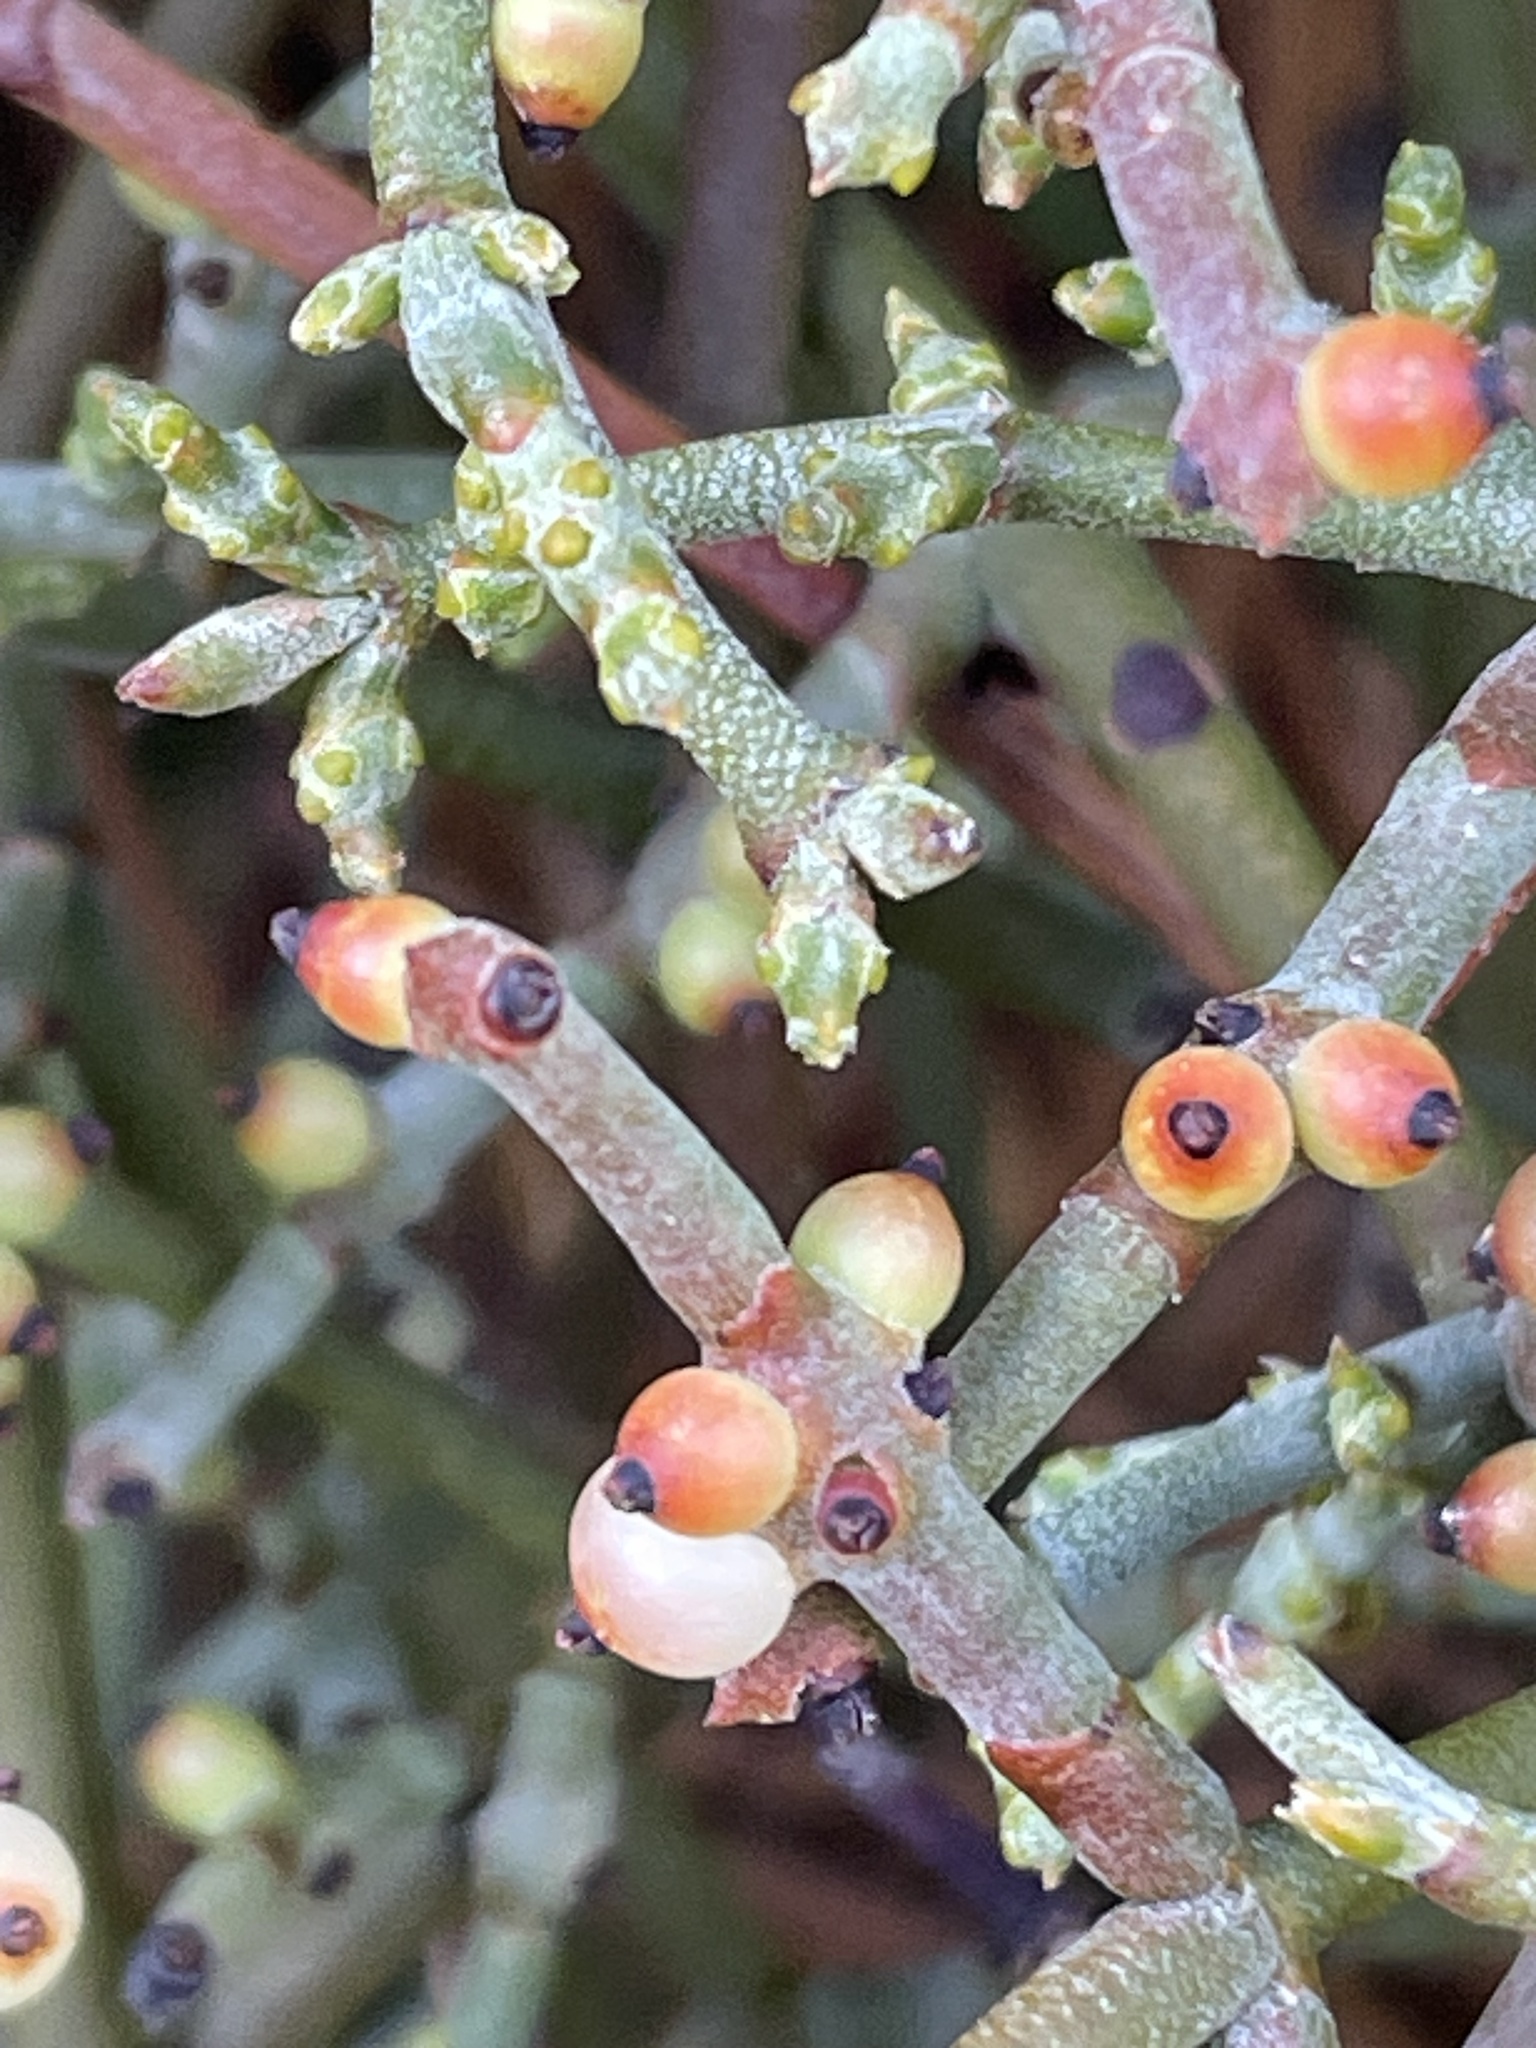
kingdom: Plantae
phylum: Tracheophyta
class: Magnoliopsida
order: Santalales
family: Viscaceae
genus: Phoradendron
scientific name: Phoradendron californicum
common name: Acacia mistletoe
